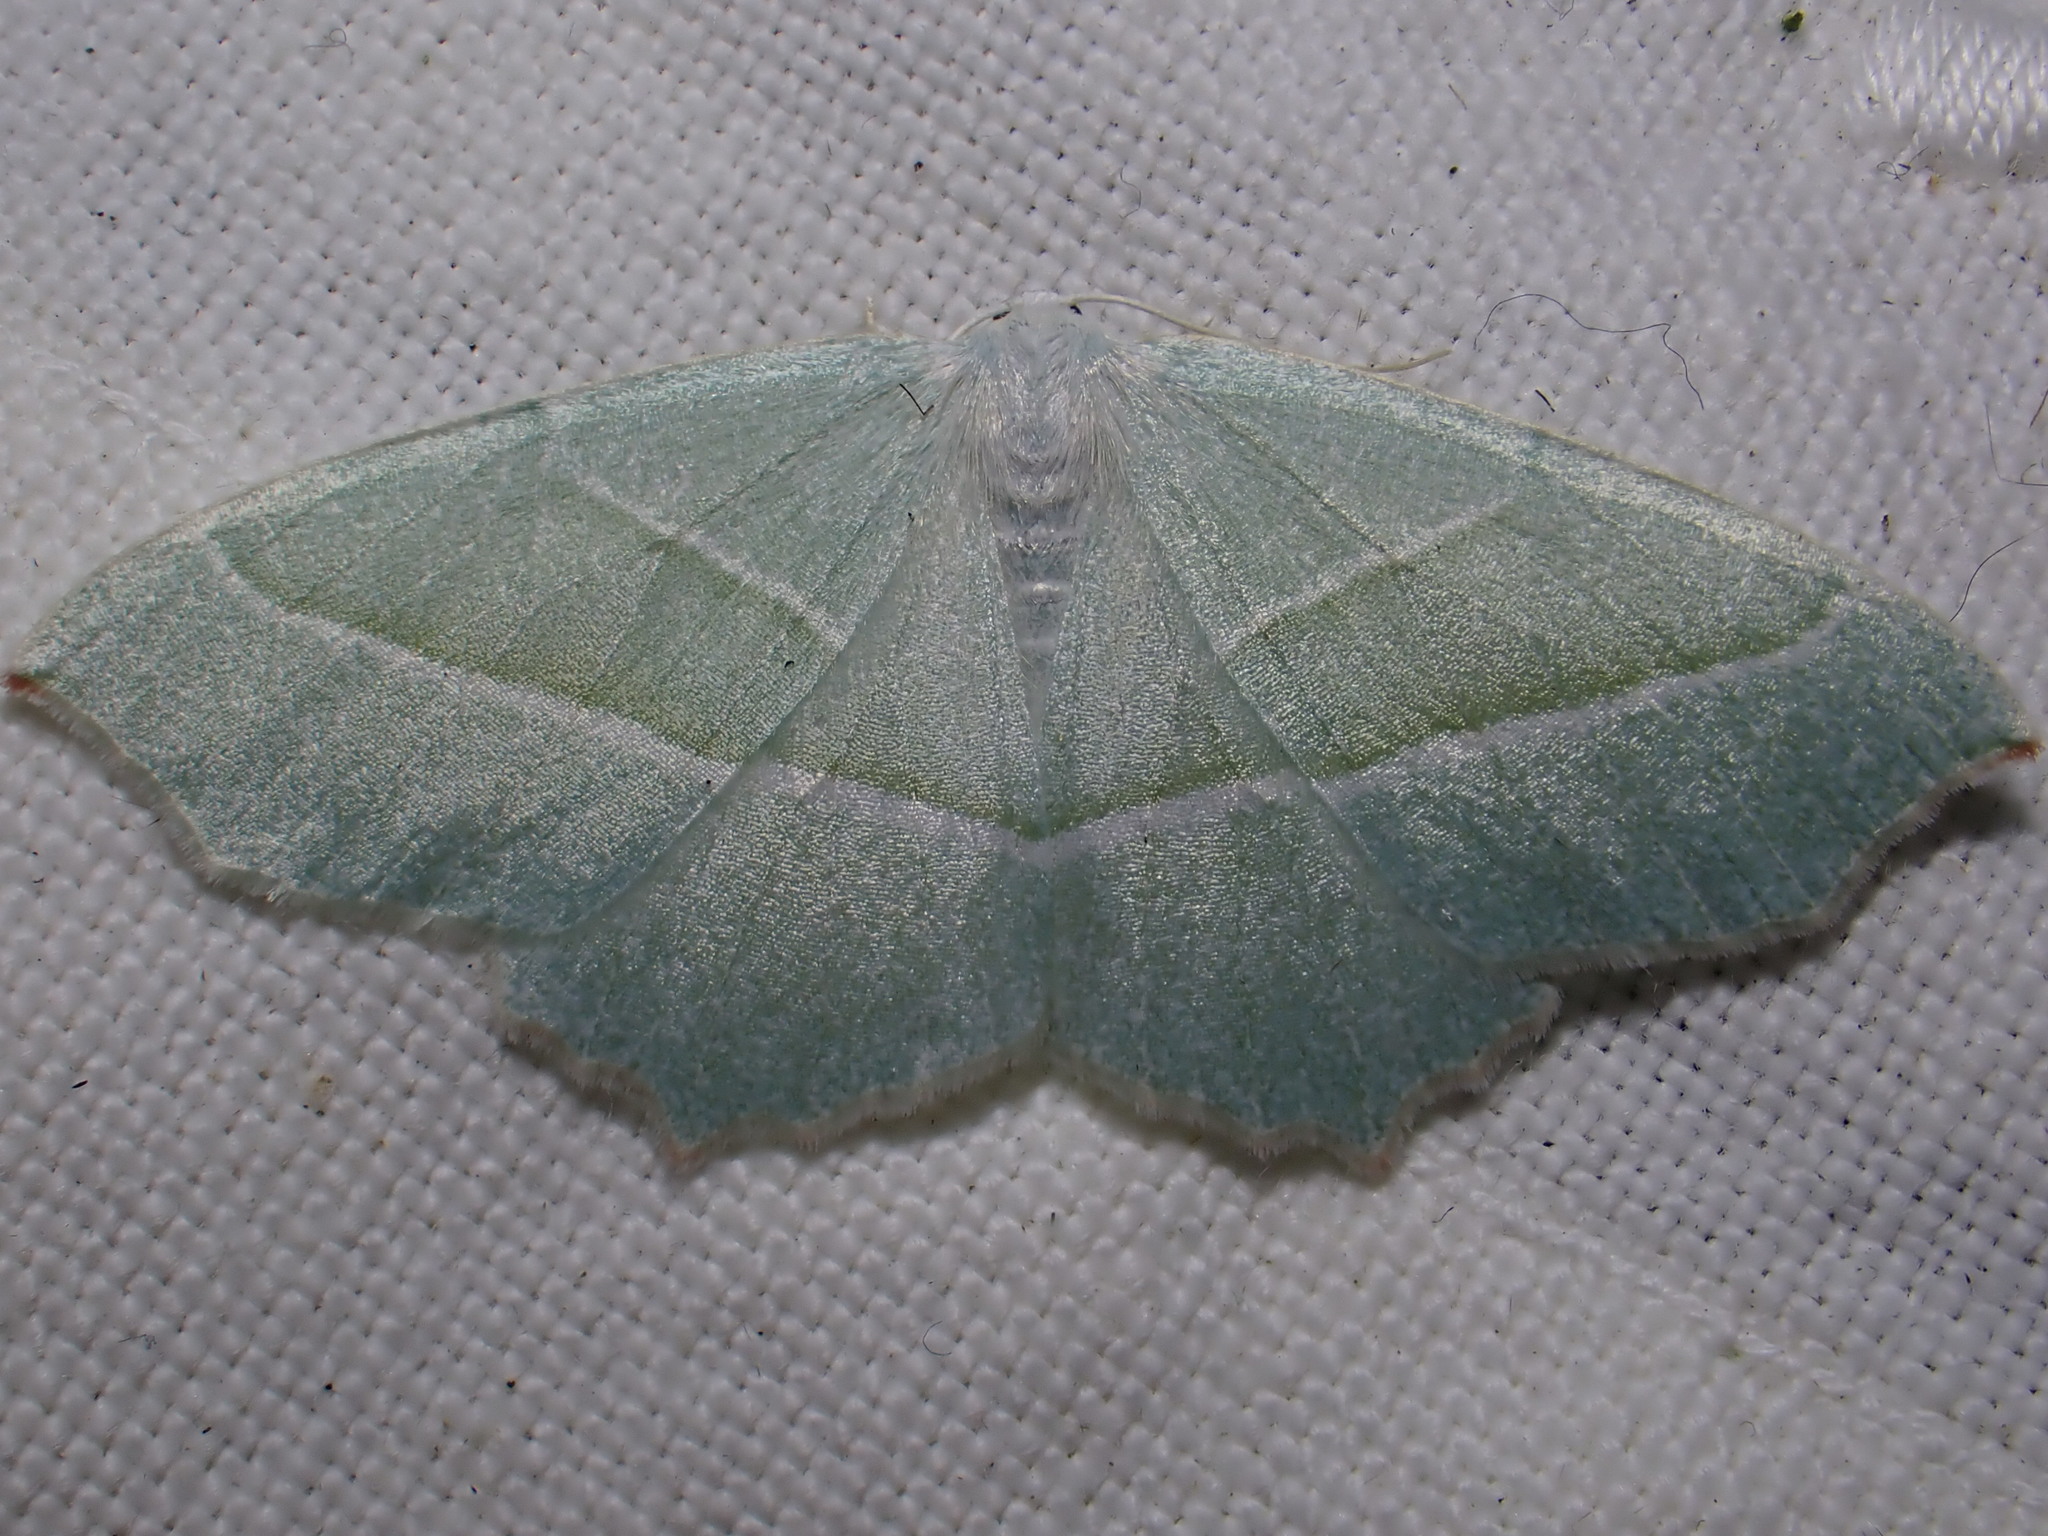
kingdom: Animalia
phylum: Arthropoda
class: Insecta
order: Lepidoptera
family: Geometridae
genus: Campaea
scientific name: Campaea margaritaria
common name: Light emerald
